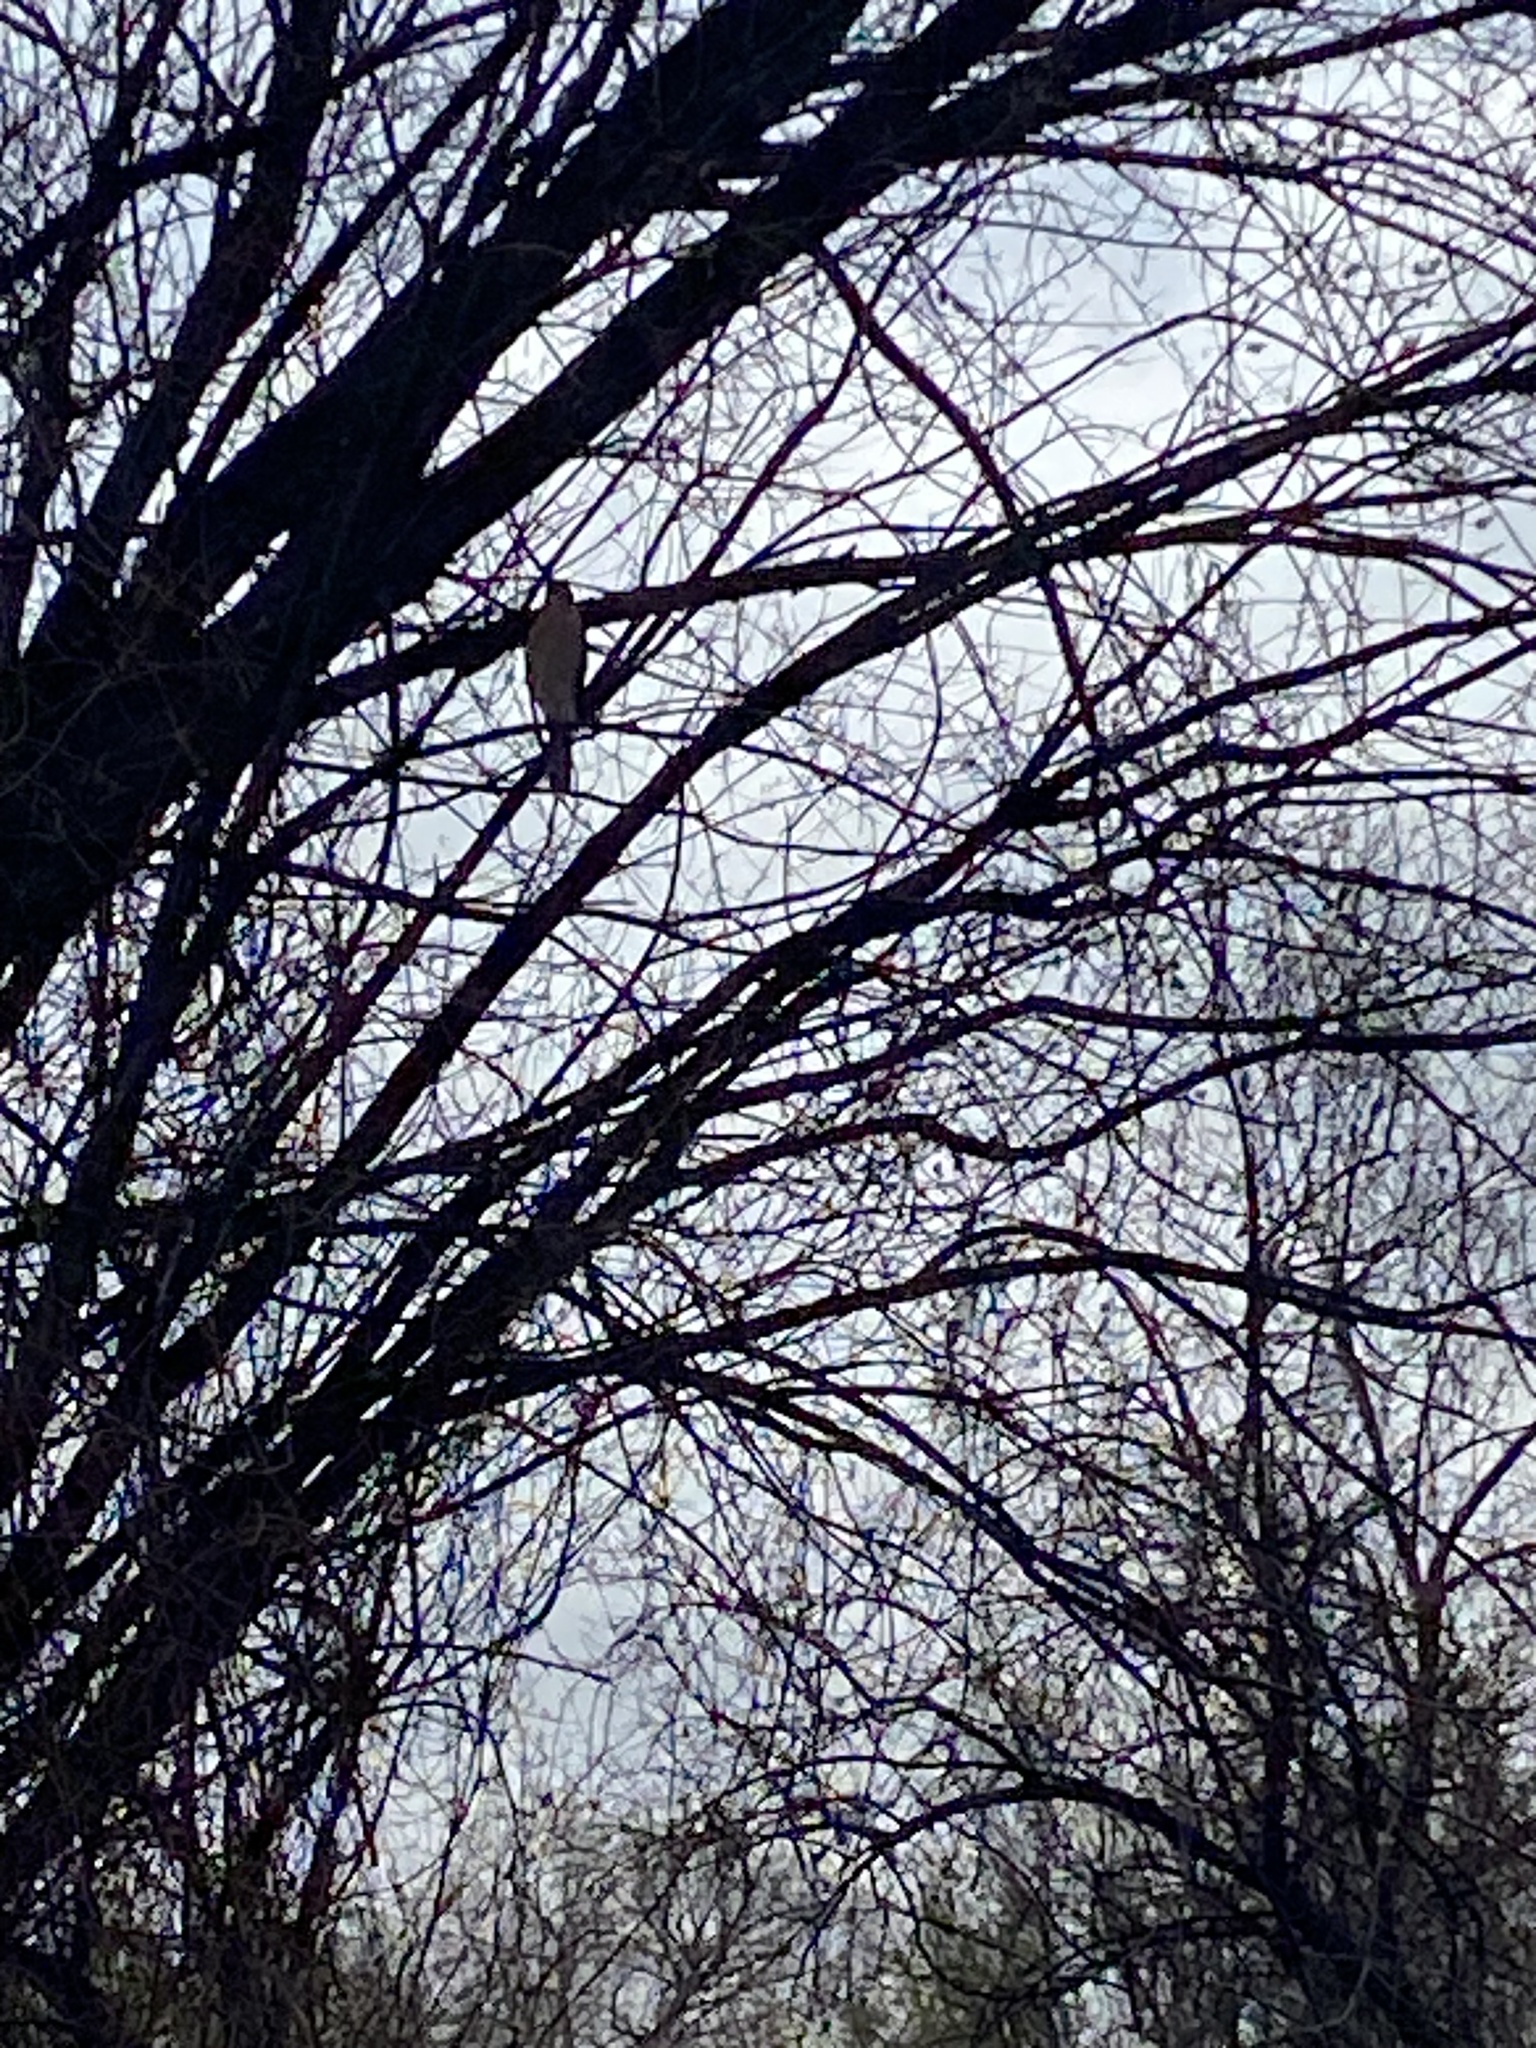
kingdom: Animalia
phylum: Chordata
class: Aves
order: Accipitriformes
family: Accipitridae
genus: Accipiter
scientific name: Accipiter cooperii
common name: Cooper's hawk
